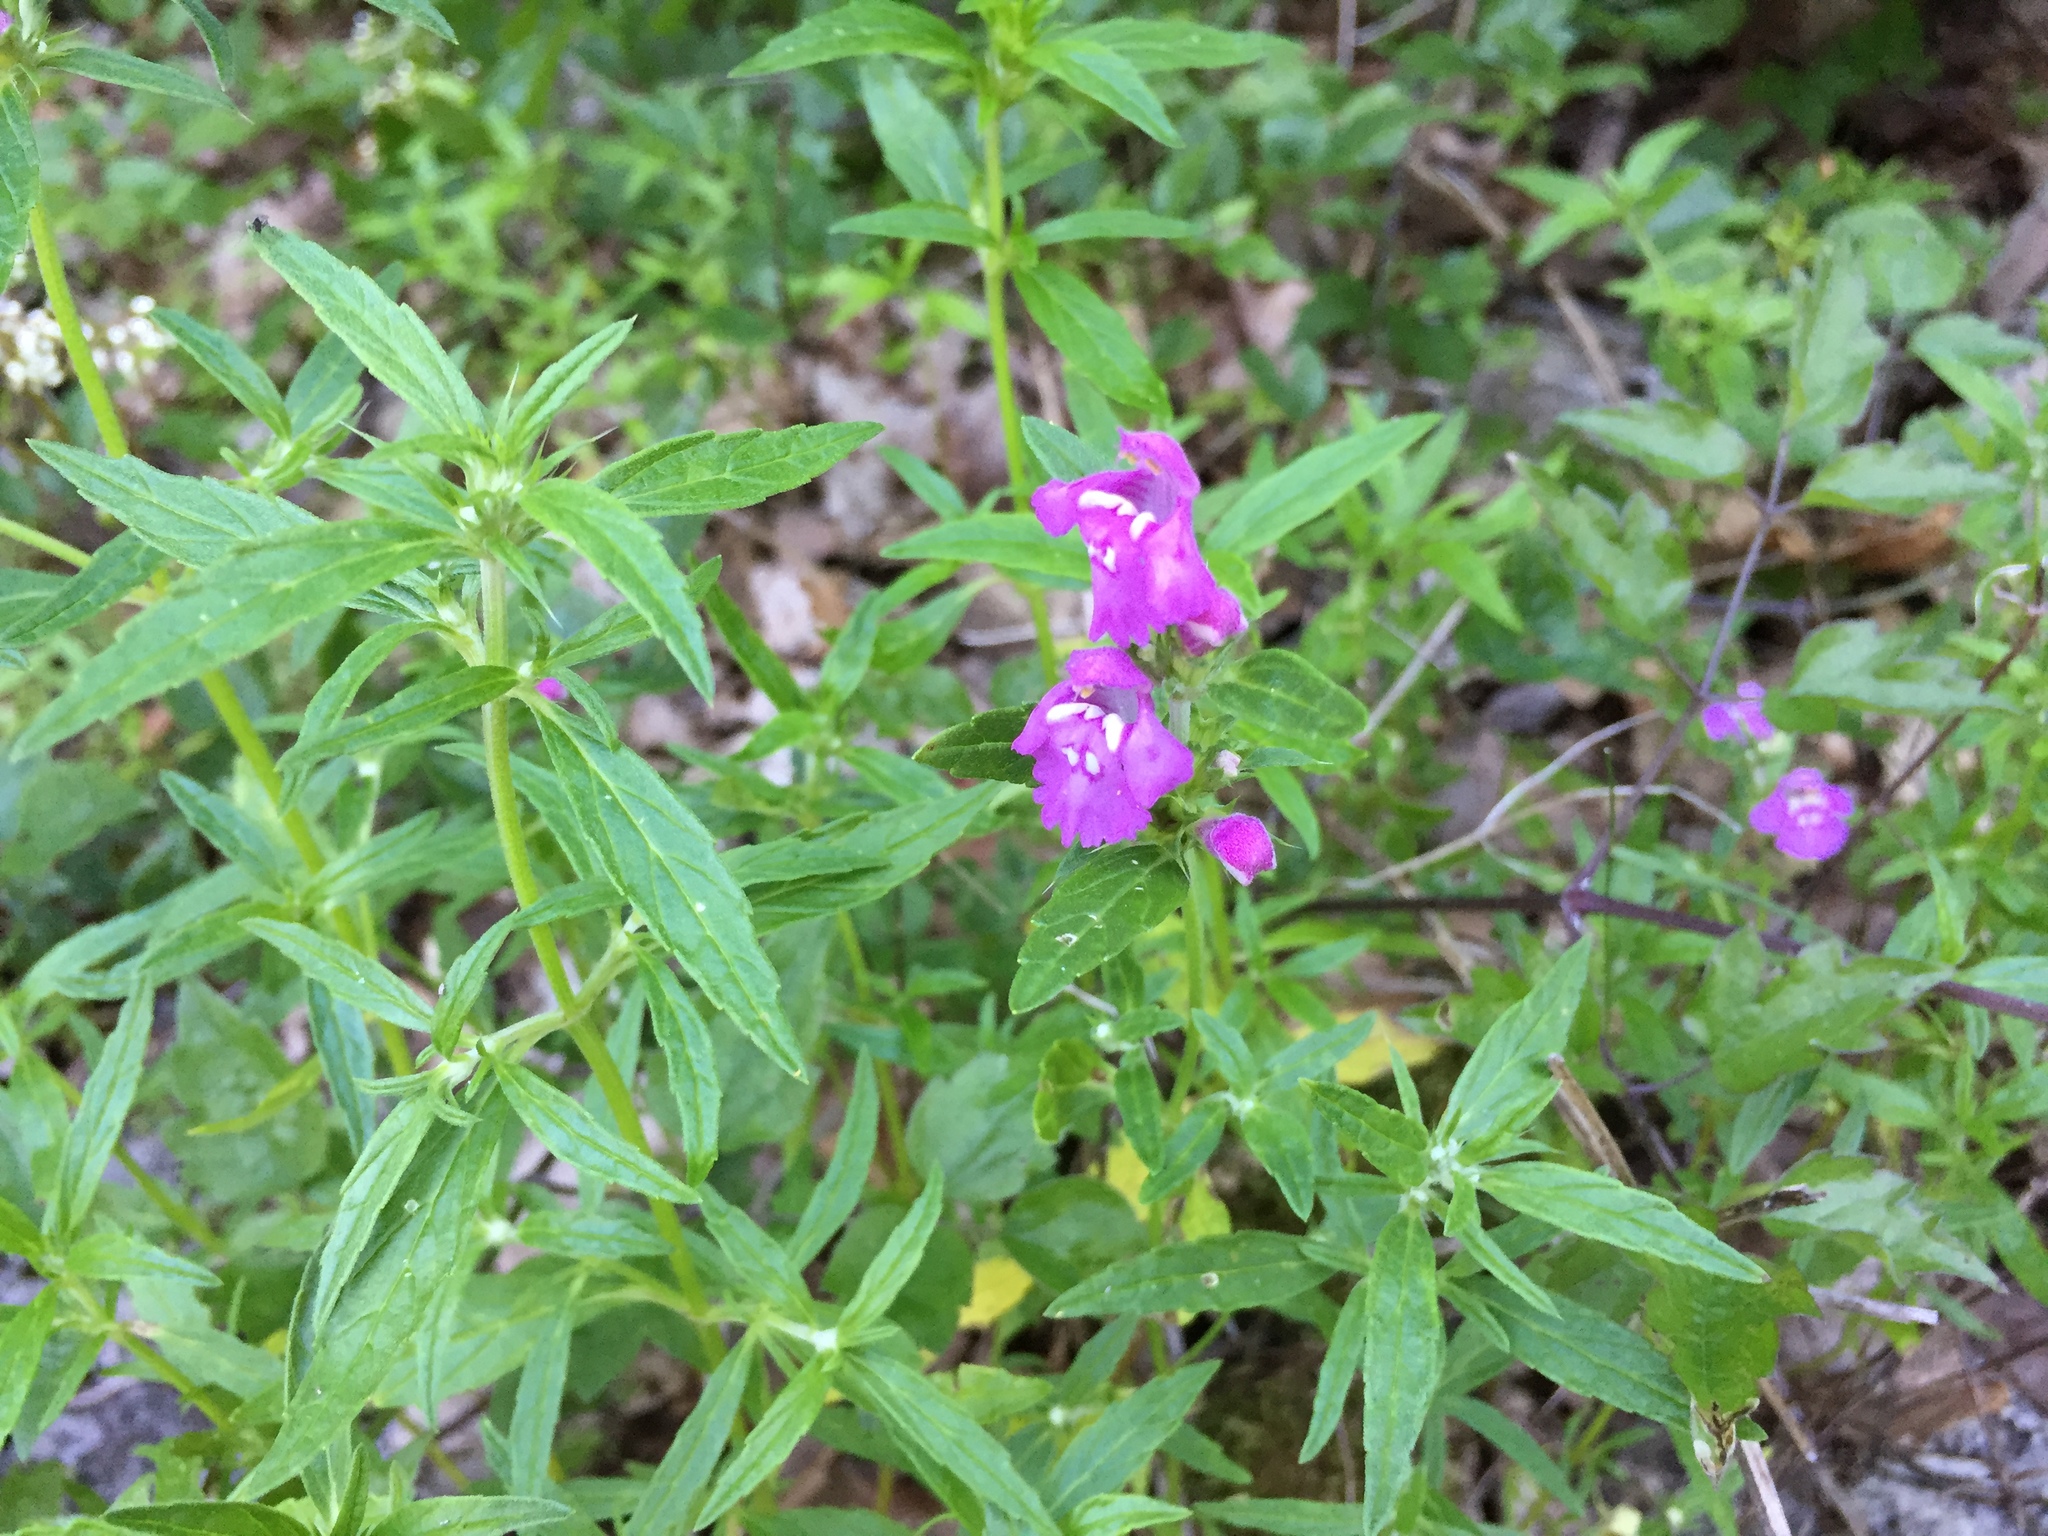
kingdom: Plantae
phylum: Tracheophyta
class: Magnoliopsida
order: Lamiales
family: Lamiaceae
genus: Galeopsis
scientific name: Galeopsis angustifolia
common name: Red hemp-nettle
